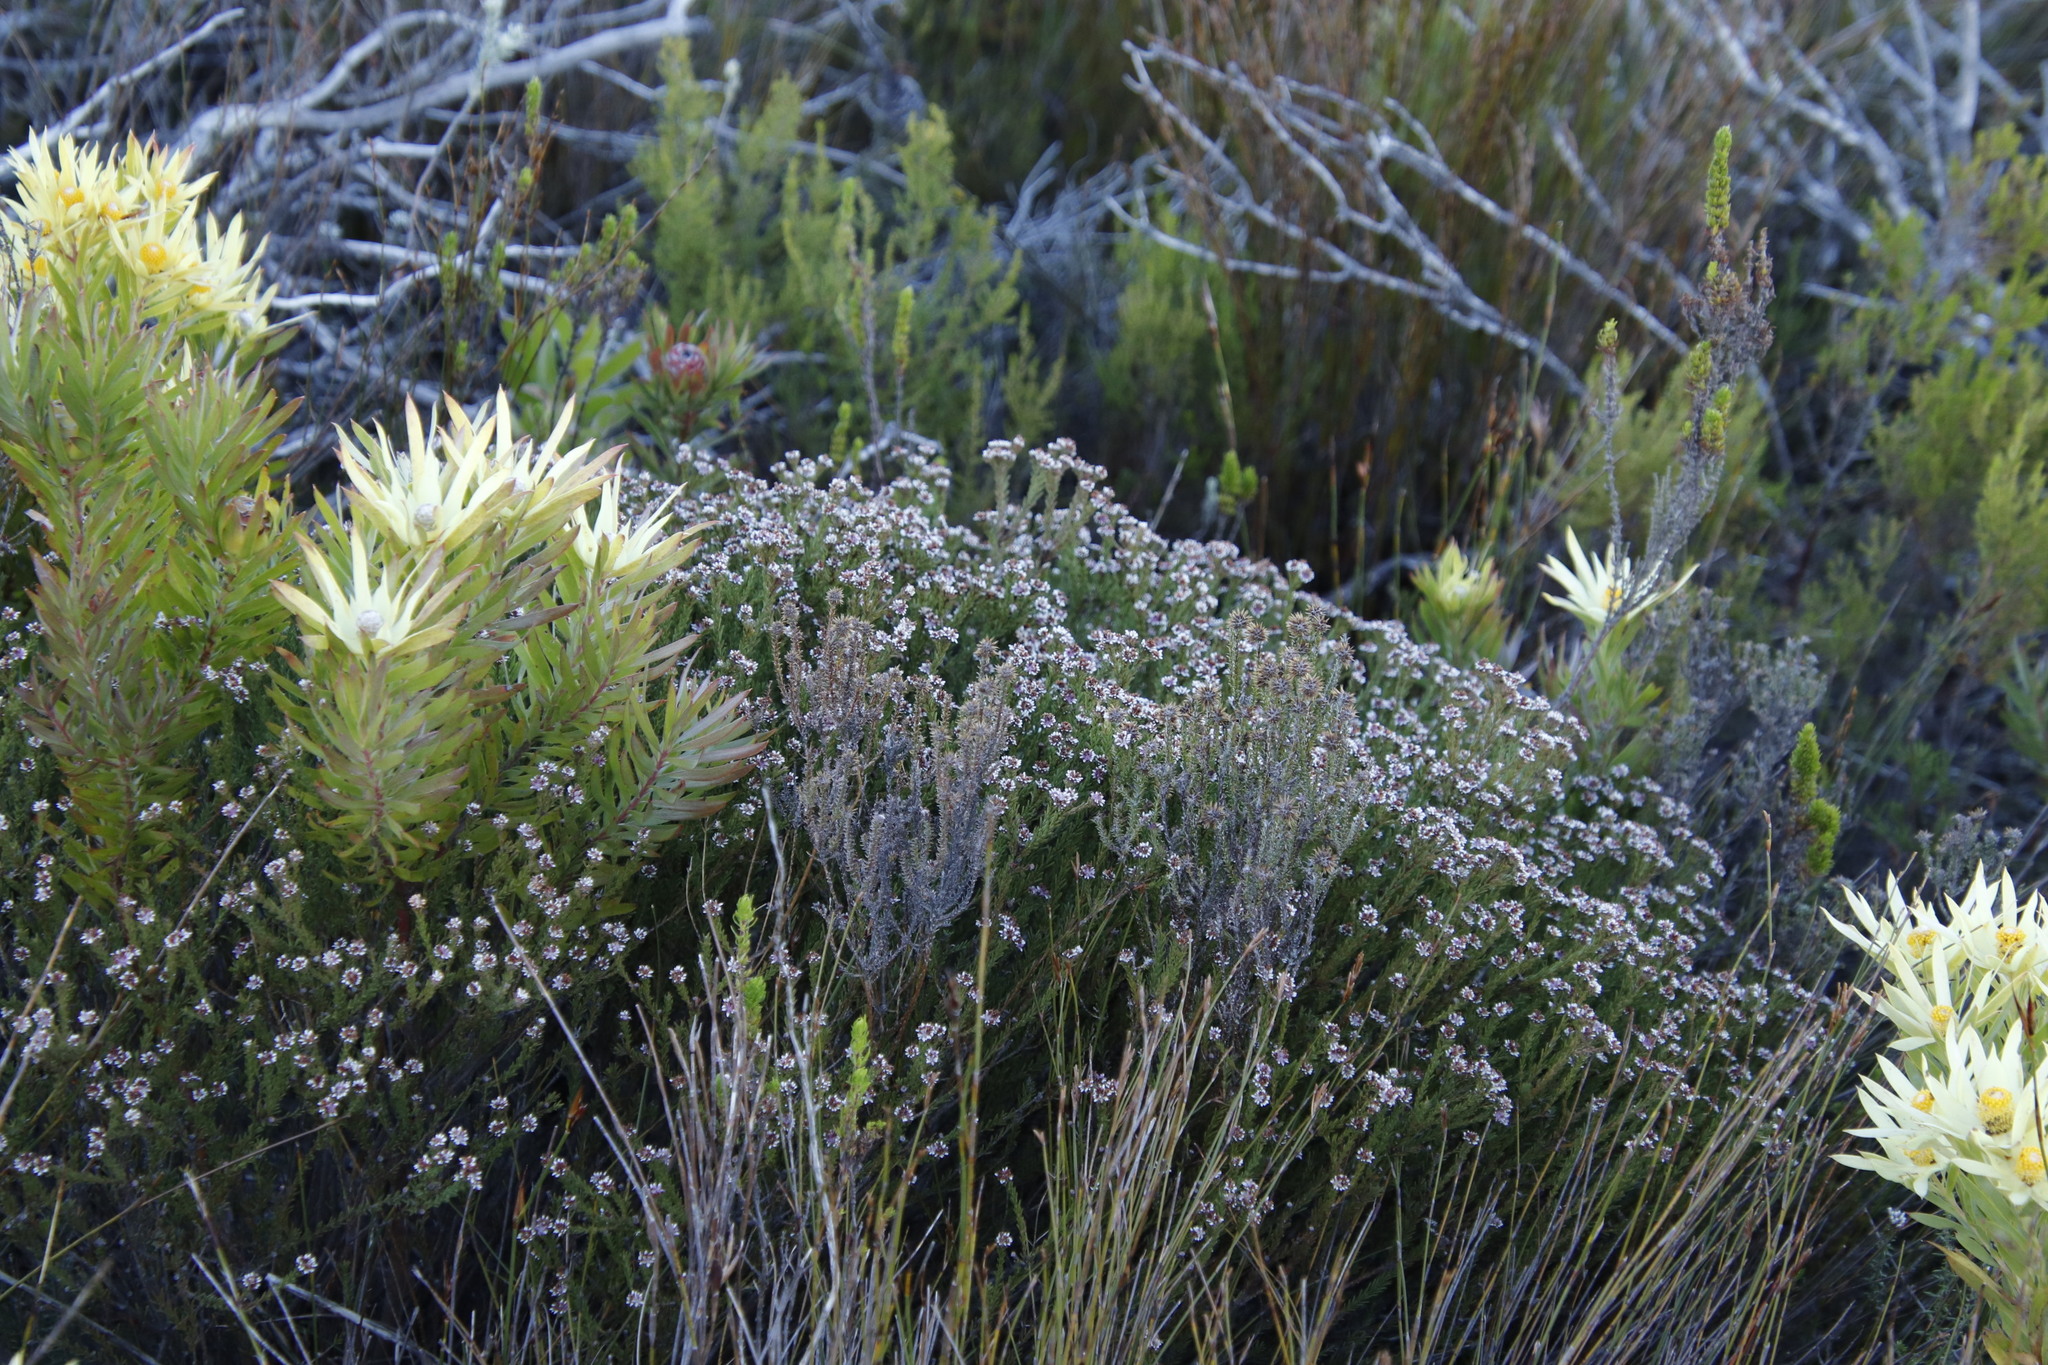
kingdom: Plantae
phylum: Tracheophyta
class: Magnoliopsida
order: Bruniales
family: Bruniaceae
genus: Staavia
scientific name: Staavia radiata
